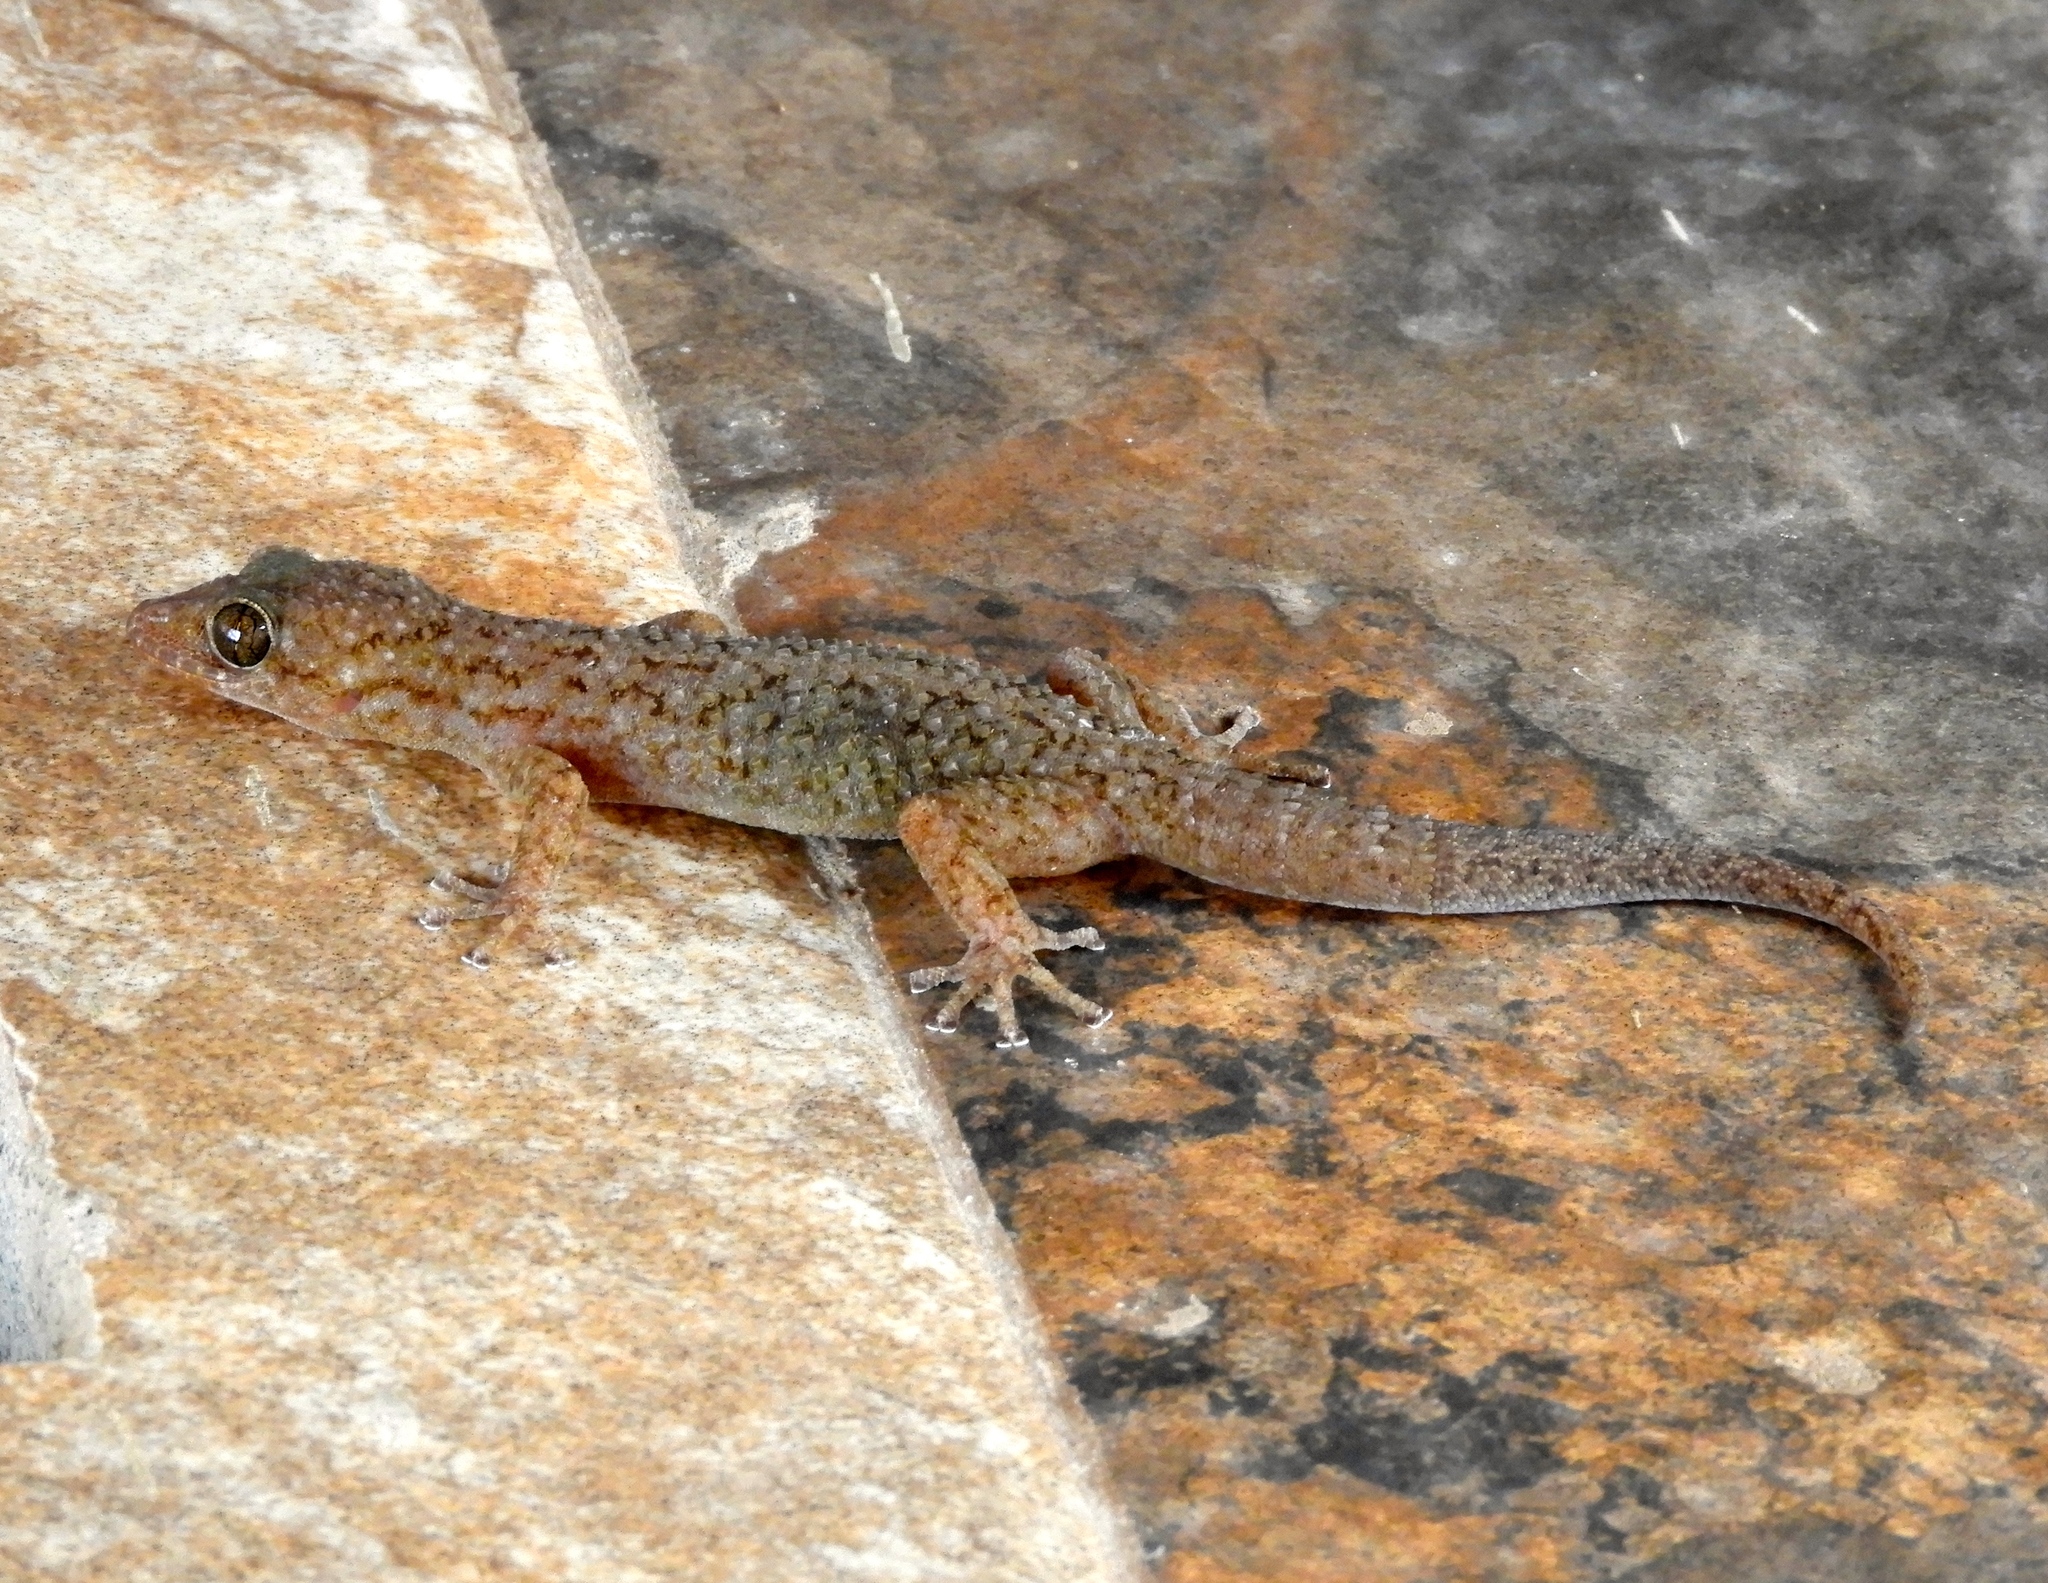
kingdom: Animalia
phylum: Chordata
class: Squamata
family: Phyllodactylidae
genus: Phyllodactylus
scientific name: Phyllodactylus tuberculosus
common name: Yellowbelly  gecko
